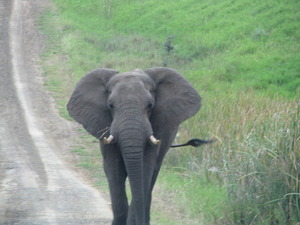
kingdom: Animalia
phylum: Chordata
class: Mammalia
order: Proboscidea
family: Elephantidae
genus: Loxodonta
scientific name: Loxodonta africana
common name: African elephant
